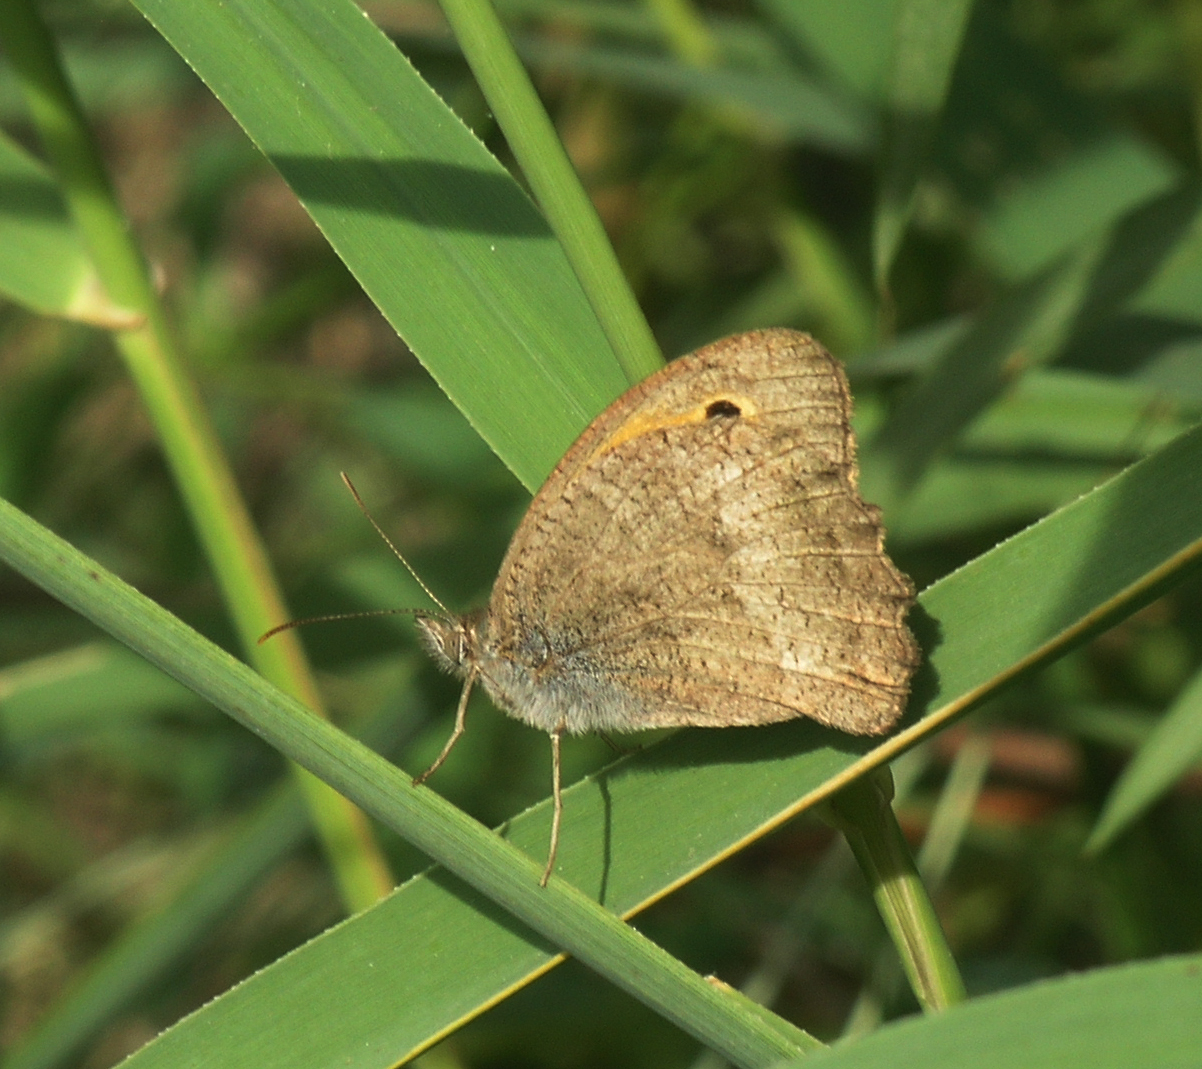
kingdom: Animalia
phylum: Arthropoda
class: Insecta
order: Lepidoptera
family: Nymphalidae
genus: Hyponephele
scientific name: Hyponephele lupinus
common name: Oriental meadow brown
